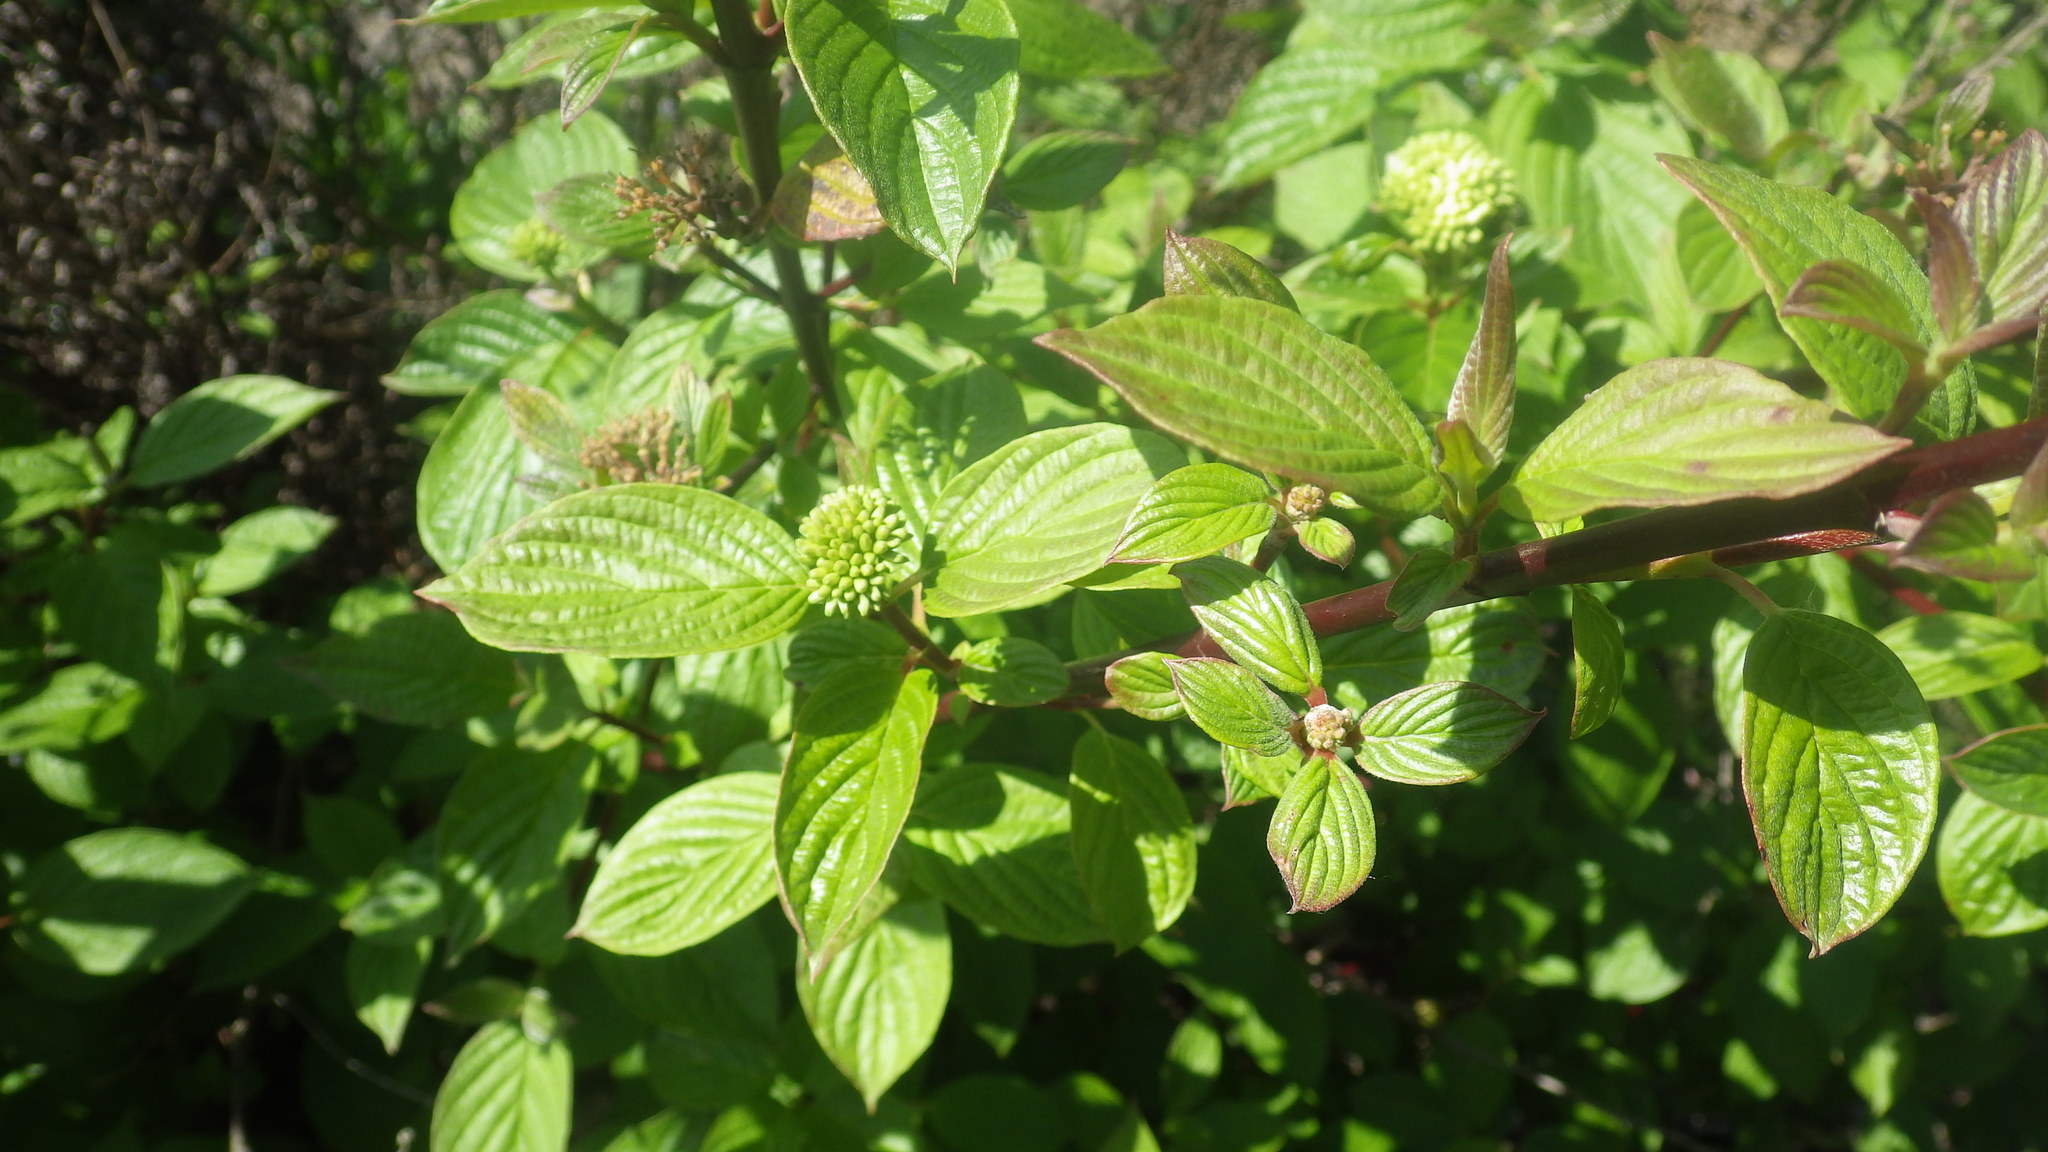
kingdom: Plantae
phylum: Tracheophyta
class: Magnoliopsida
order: Cornales
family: Cornaceae
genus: Cornus
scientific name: Cornus sericea
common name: Red-osier dogwood
